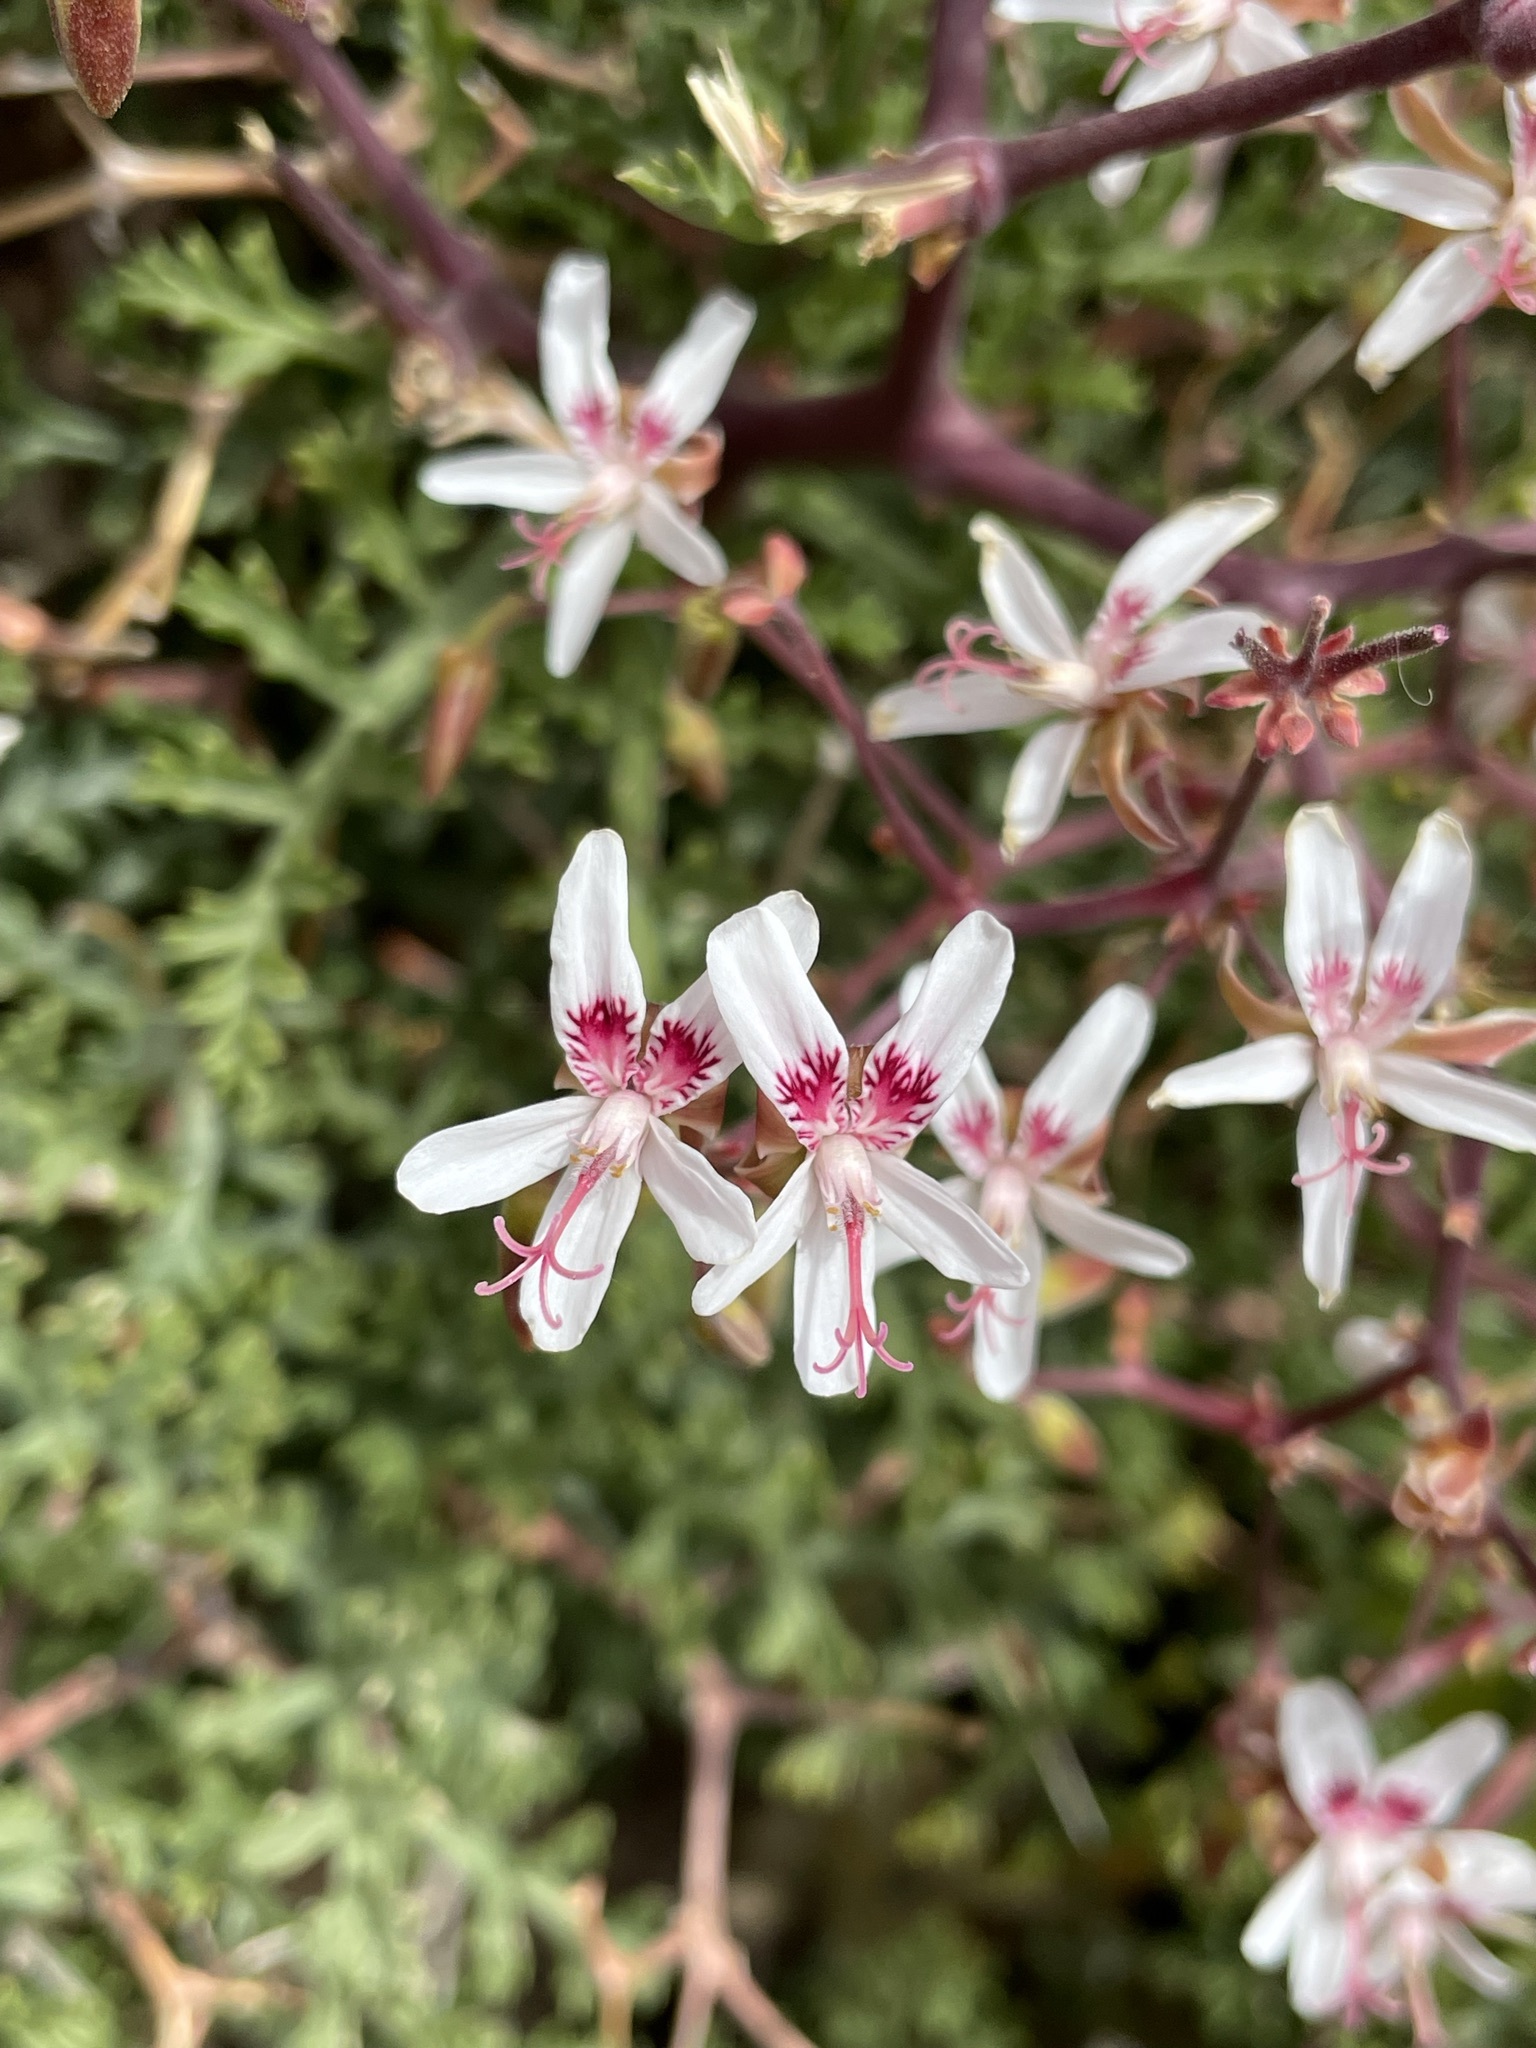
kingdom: Plantae
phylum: Tracheophyta
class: Magnoliopsida
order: Geraniales
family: Geraniaceae
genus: Pelargonium
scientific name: Pelargonium crithmifolium
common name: Samphire-leaf pelargonium
